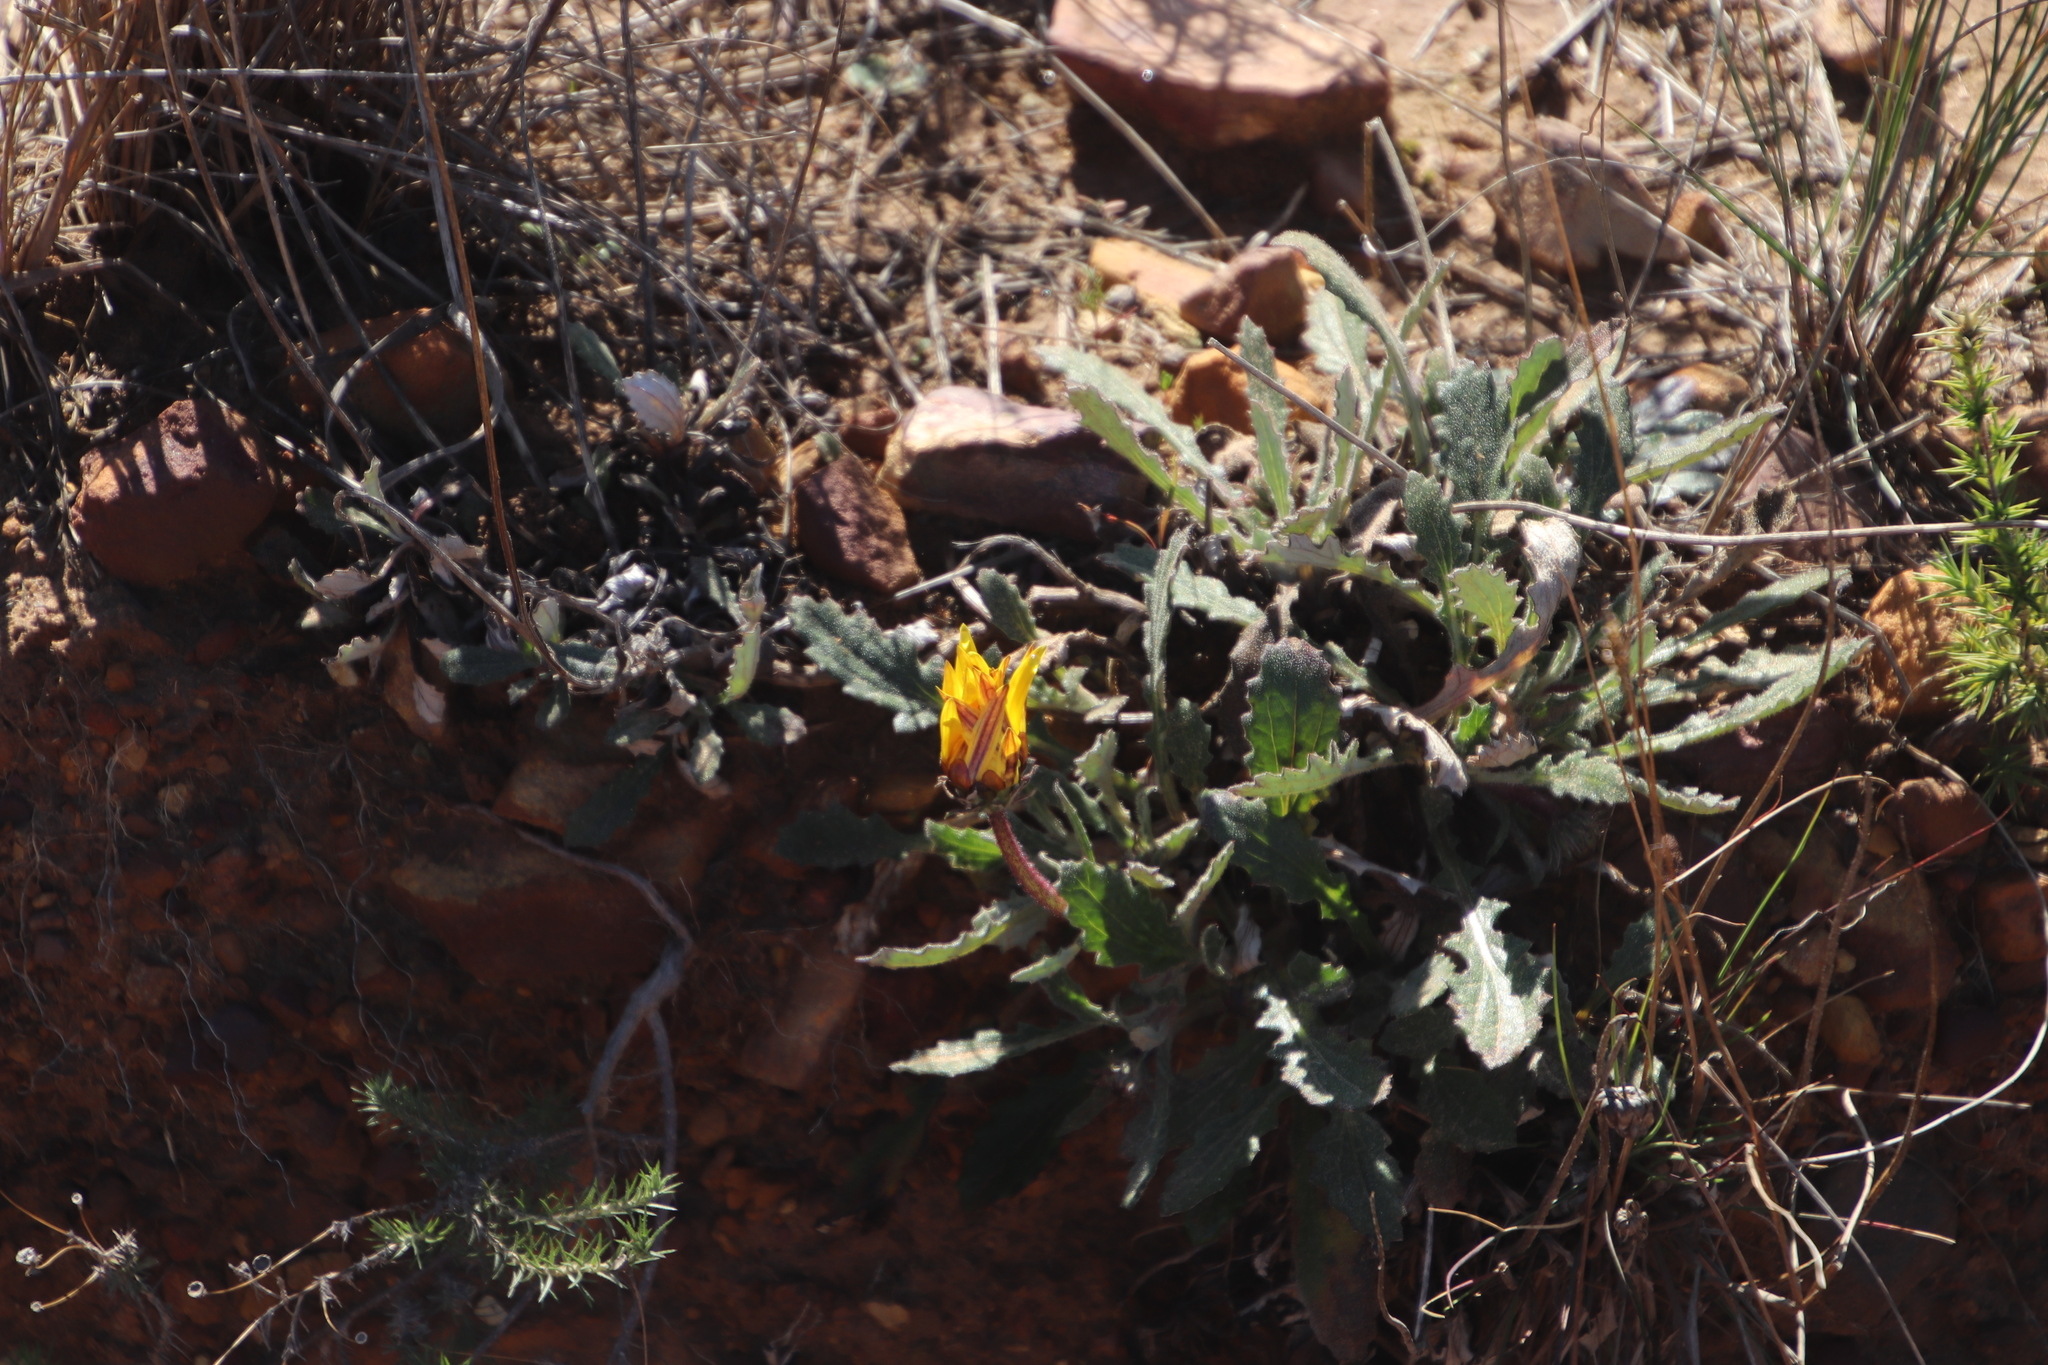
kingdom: Plantae
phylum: Tracheophyta
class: Magnoliopsida
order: Asterales
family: Asteraceae
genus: Arctotis
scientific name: Arctotis bellidifolia
